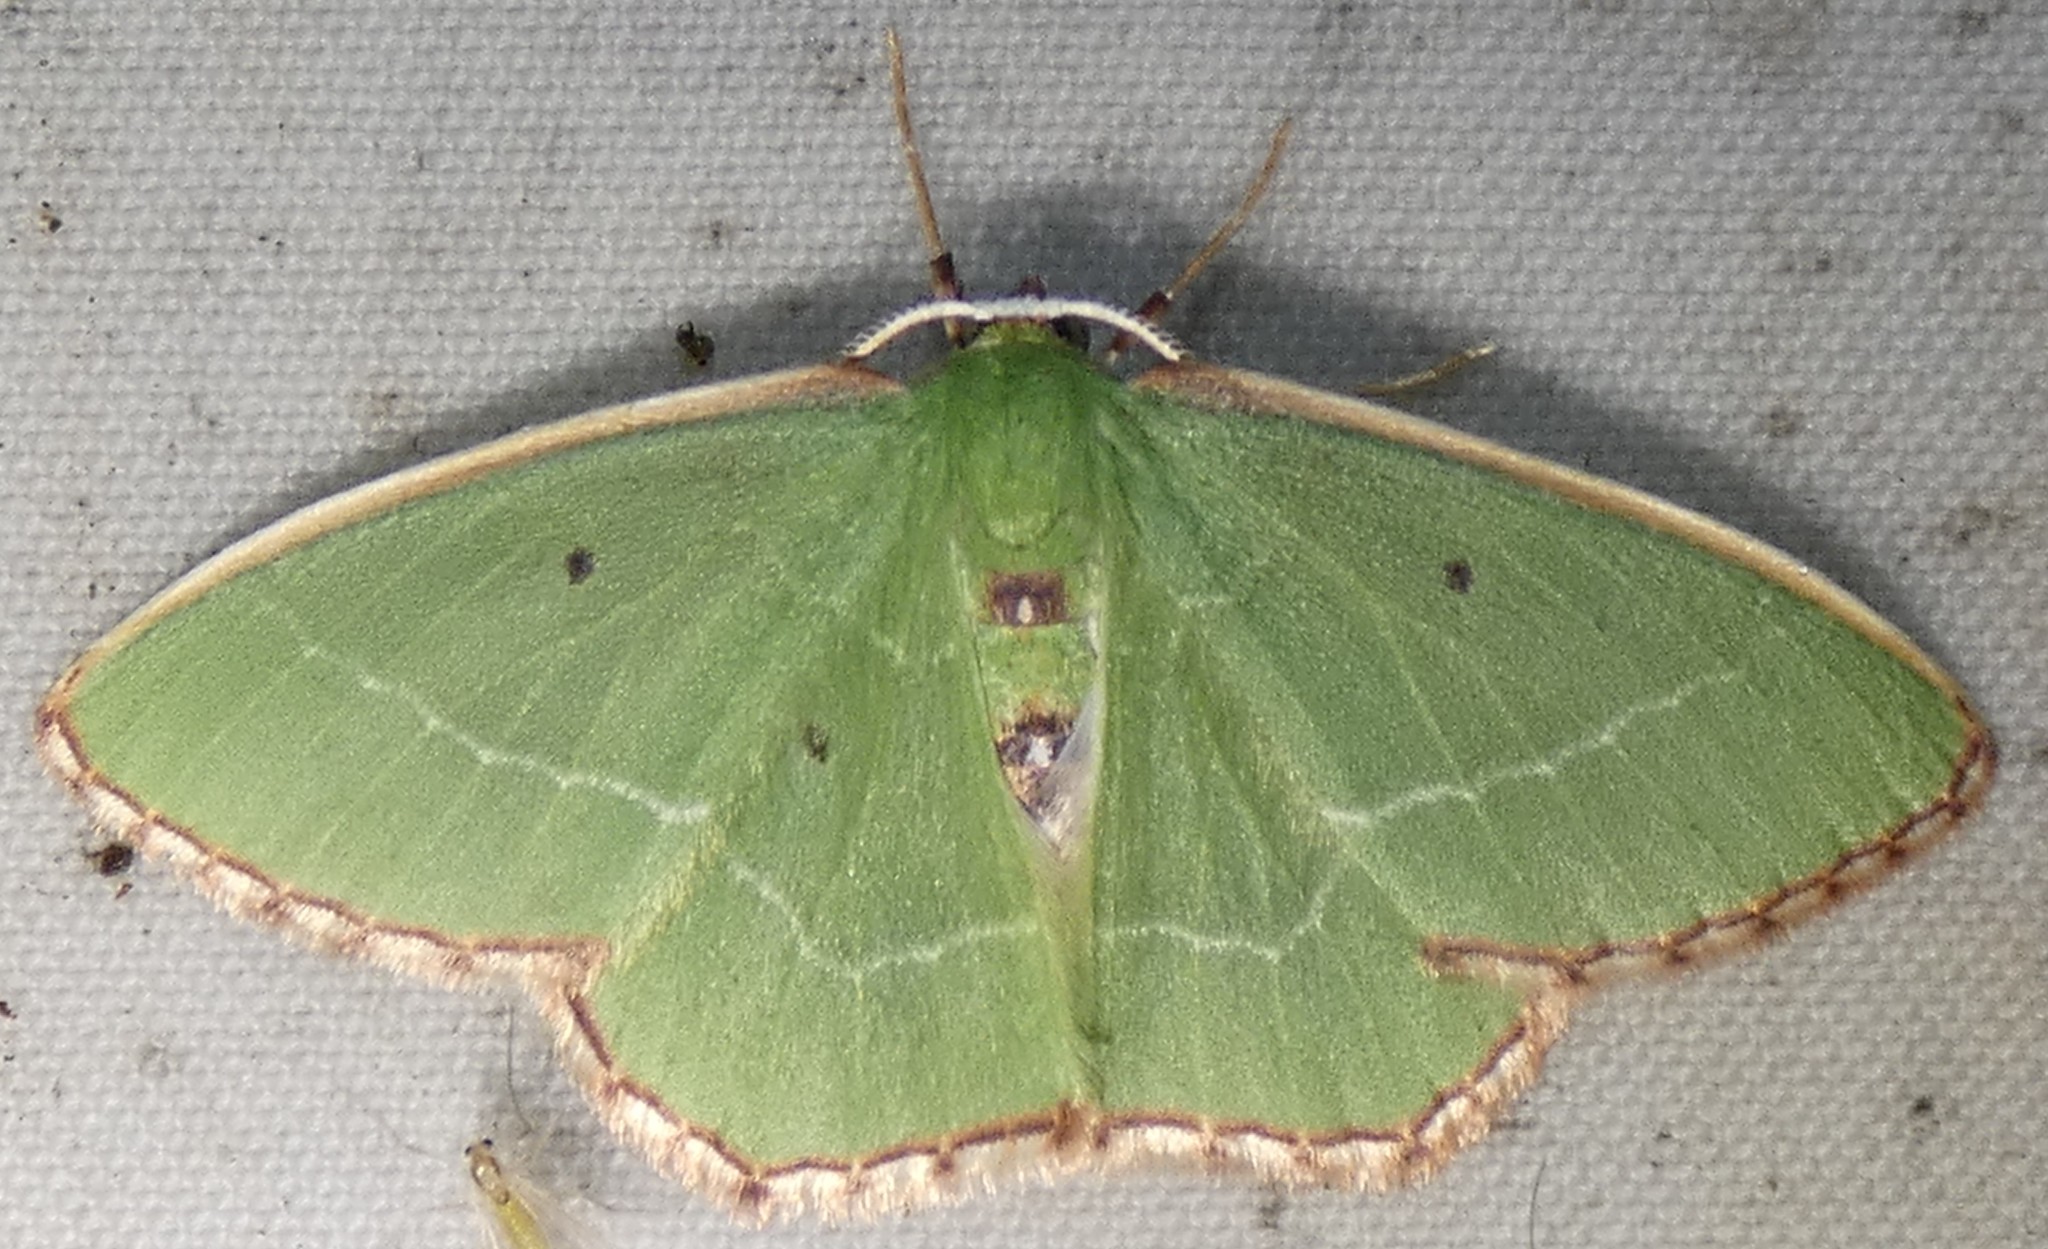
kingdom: Animalia
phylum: Arthropoda
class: Insecta
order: Lepidoptera
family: Geometridae
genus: Nemoria
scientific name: Nemoria saturiba
